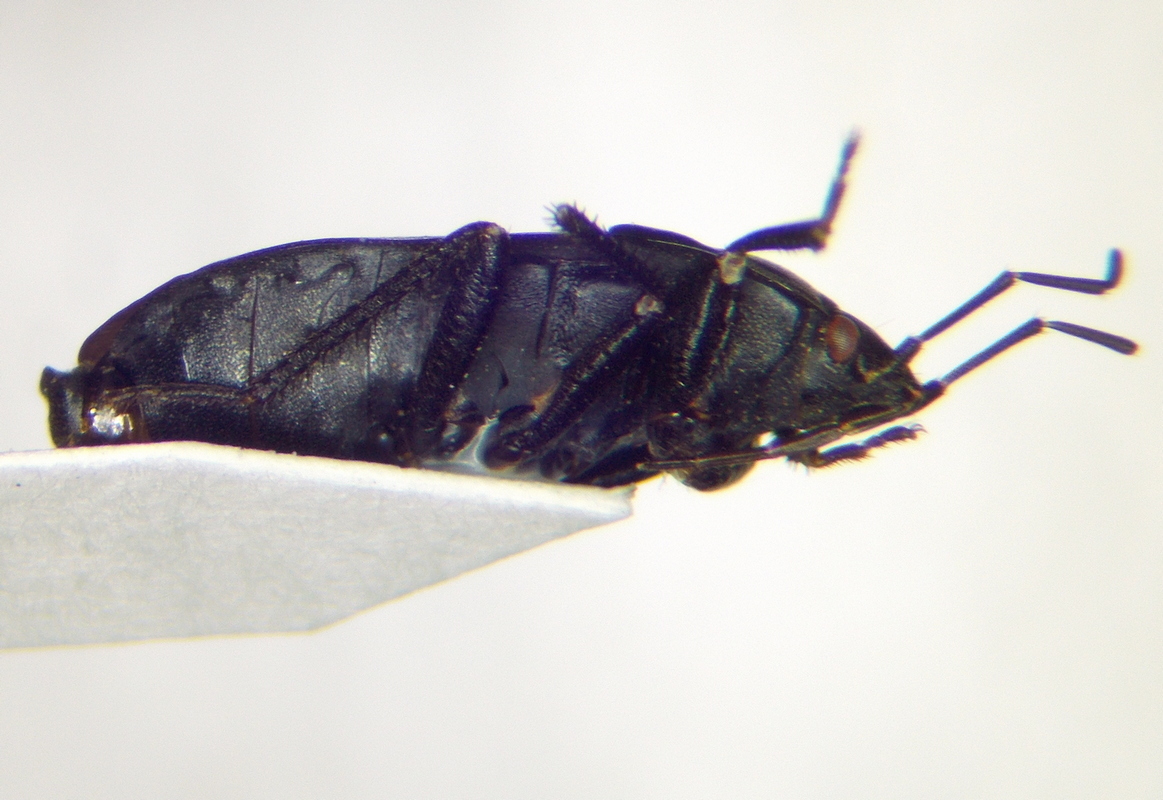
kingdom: Animalia
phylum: Arthropoda
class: Insecta
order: Hemiptera
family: Rhyparochromidae
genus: Aellopus
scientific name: Aellopus atratus
